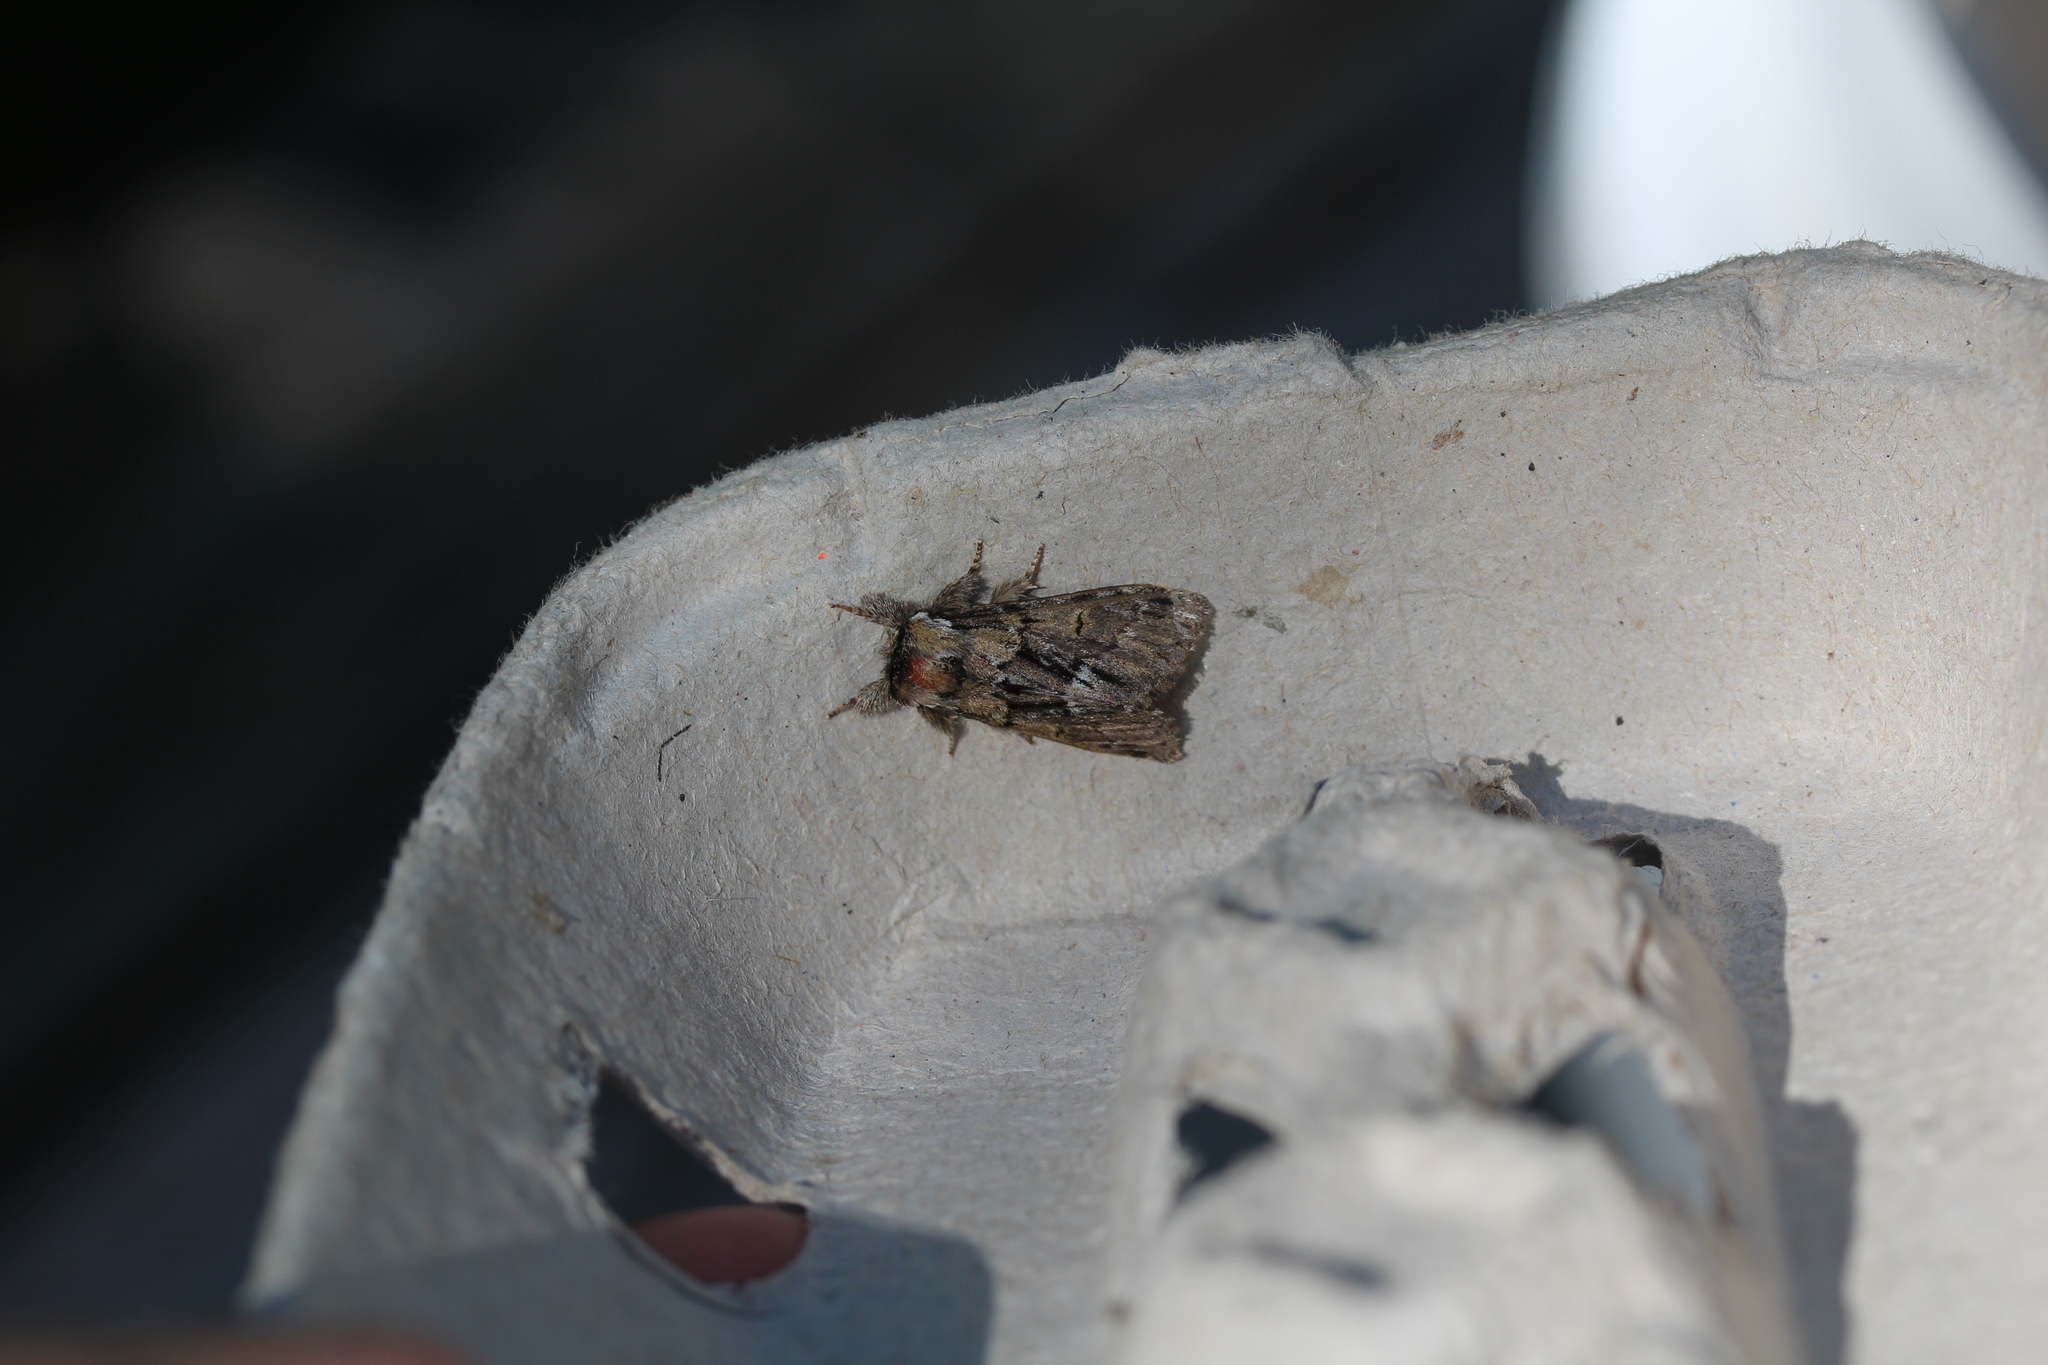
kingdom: Animalia
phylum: Arthropoda
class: Insecta
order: Lepidoptera
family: Notodontidae
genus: Paraeschra
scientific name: Paraeschra georgica
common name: Georgian prominent
